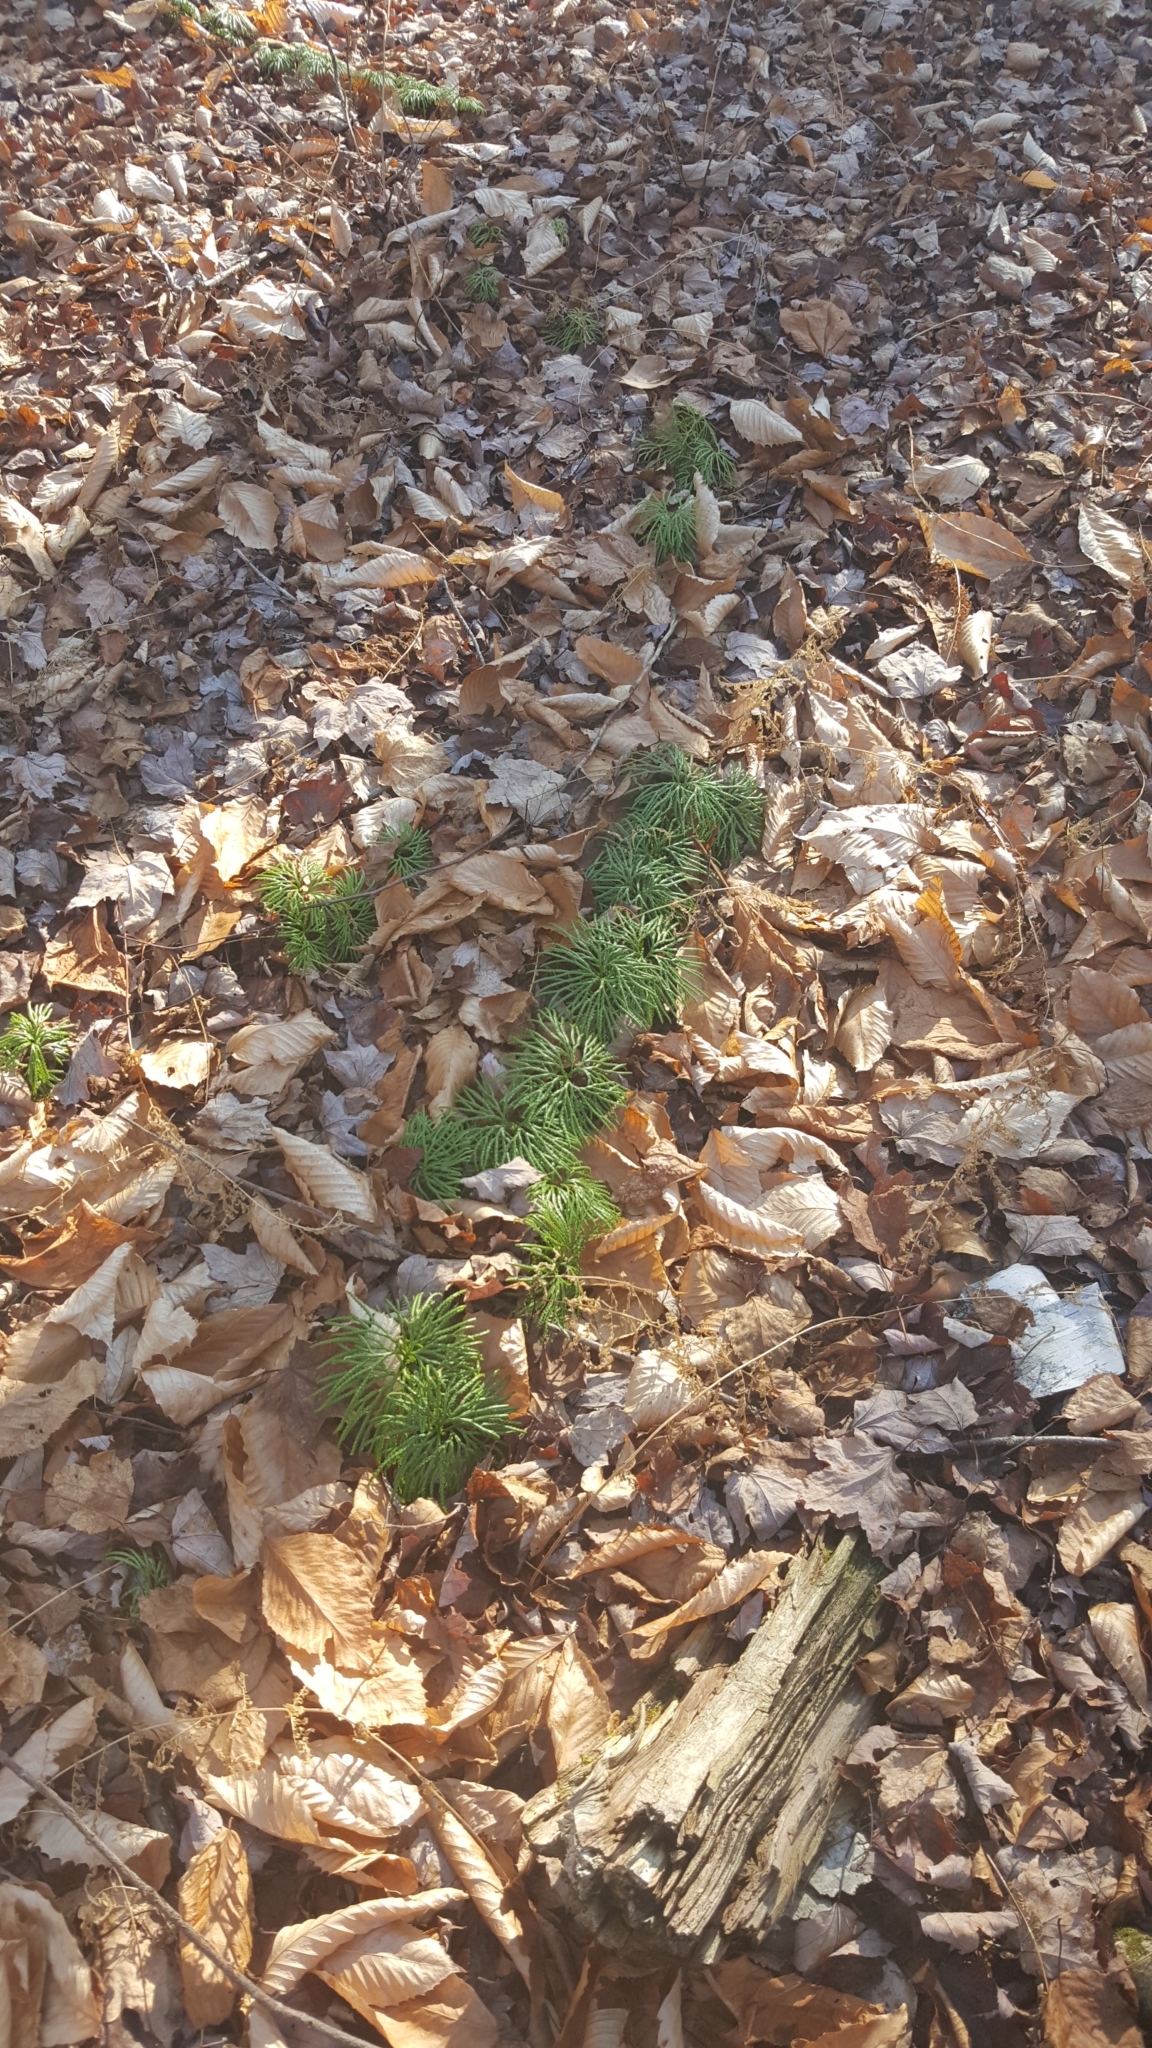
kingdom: Plantae
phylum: Tracheophyta
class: Lycopodiopsida
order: Lycopodiales
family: Lycopodiaceae
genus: Diphasiastrum
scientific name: Diphasiastrum digitatum
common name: Southern running-pine
